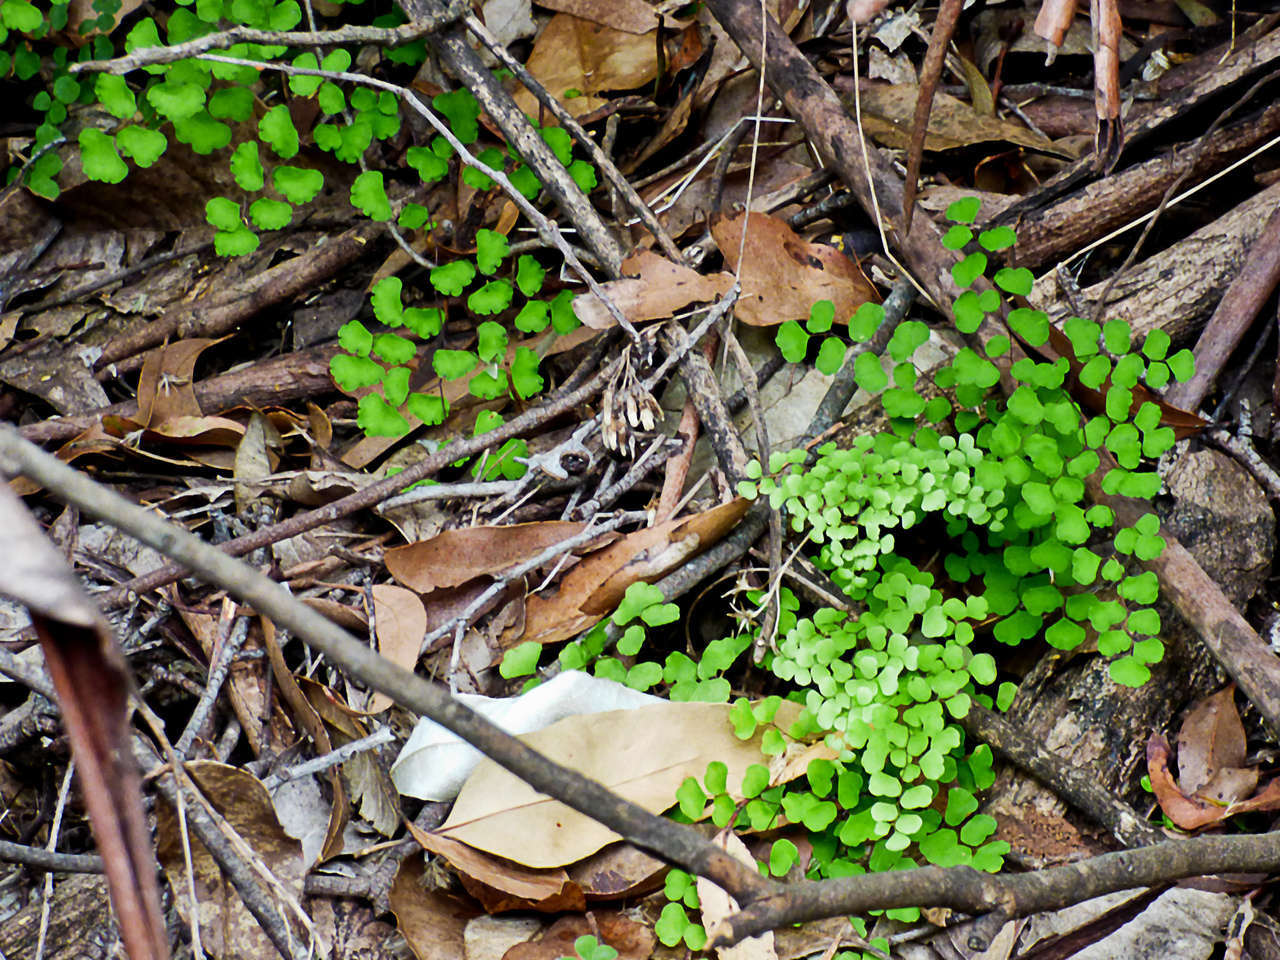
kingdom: Plantae
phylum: Tracheophyta
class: Polypodiopsida
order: Polypodiales
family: Pteridaceae
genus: Adiantum
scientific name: Adiantum aethiopicum
